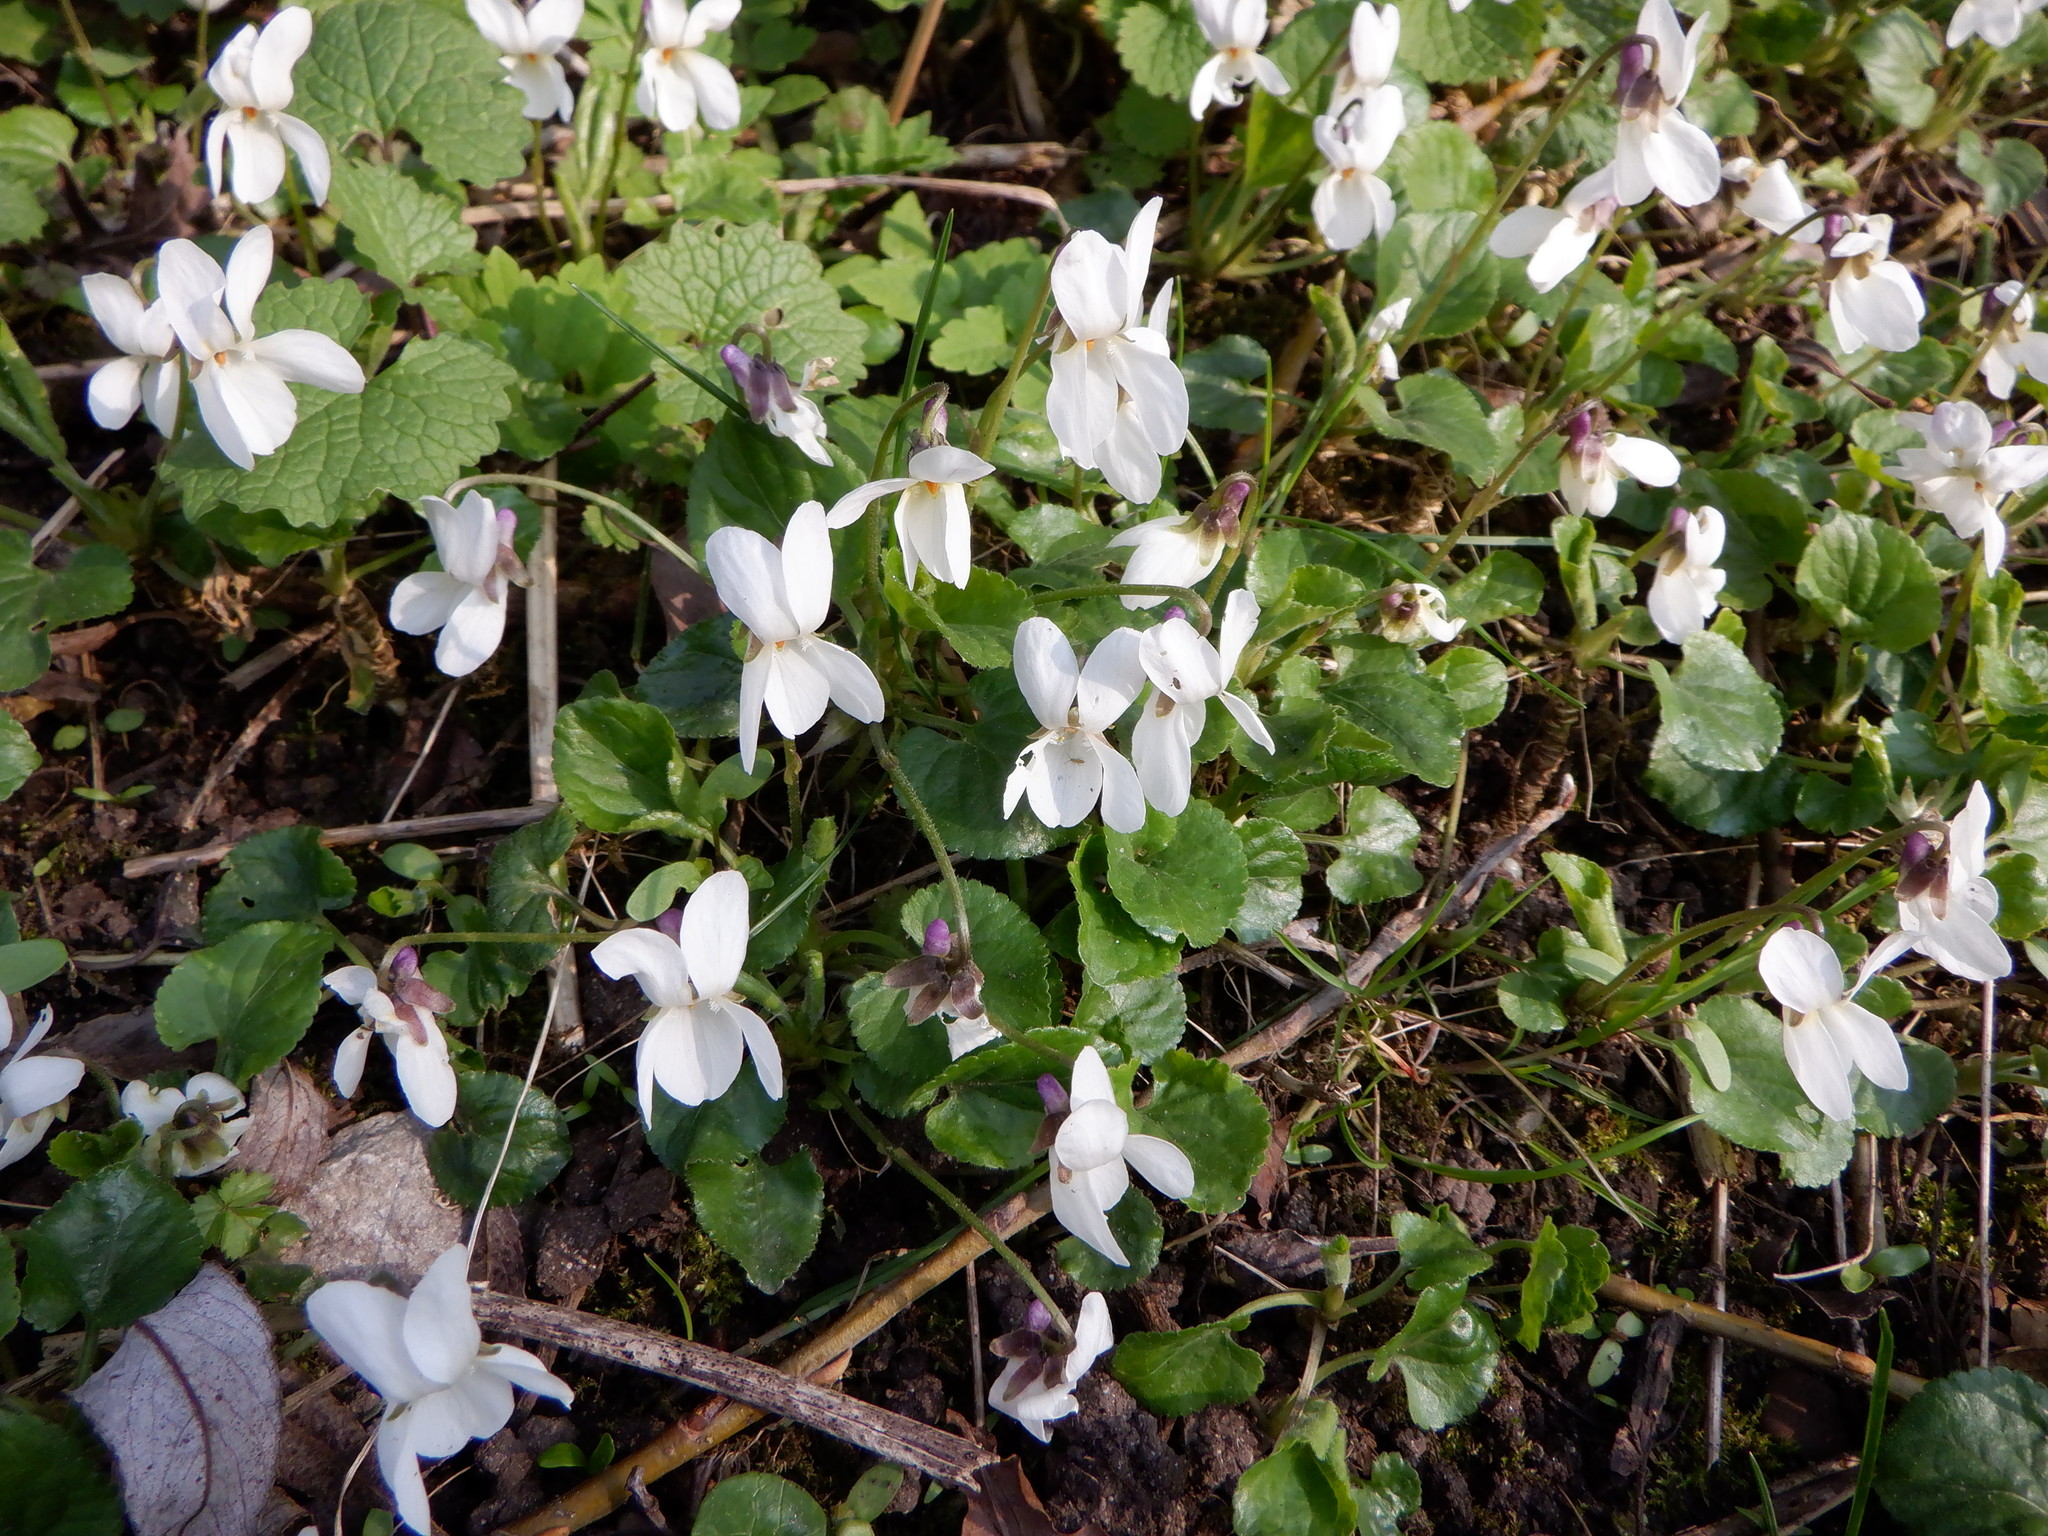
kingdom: Plantae
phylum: Tracheophyta
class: Magnoliopsida
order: Malpighiales
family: Violaceae
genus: Viola
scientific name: Viola odorata
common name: Sweet violet
